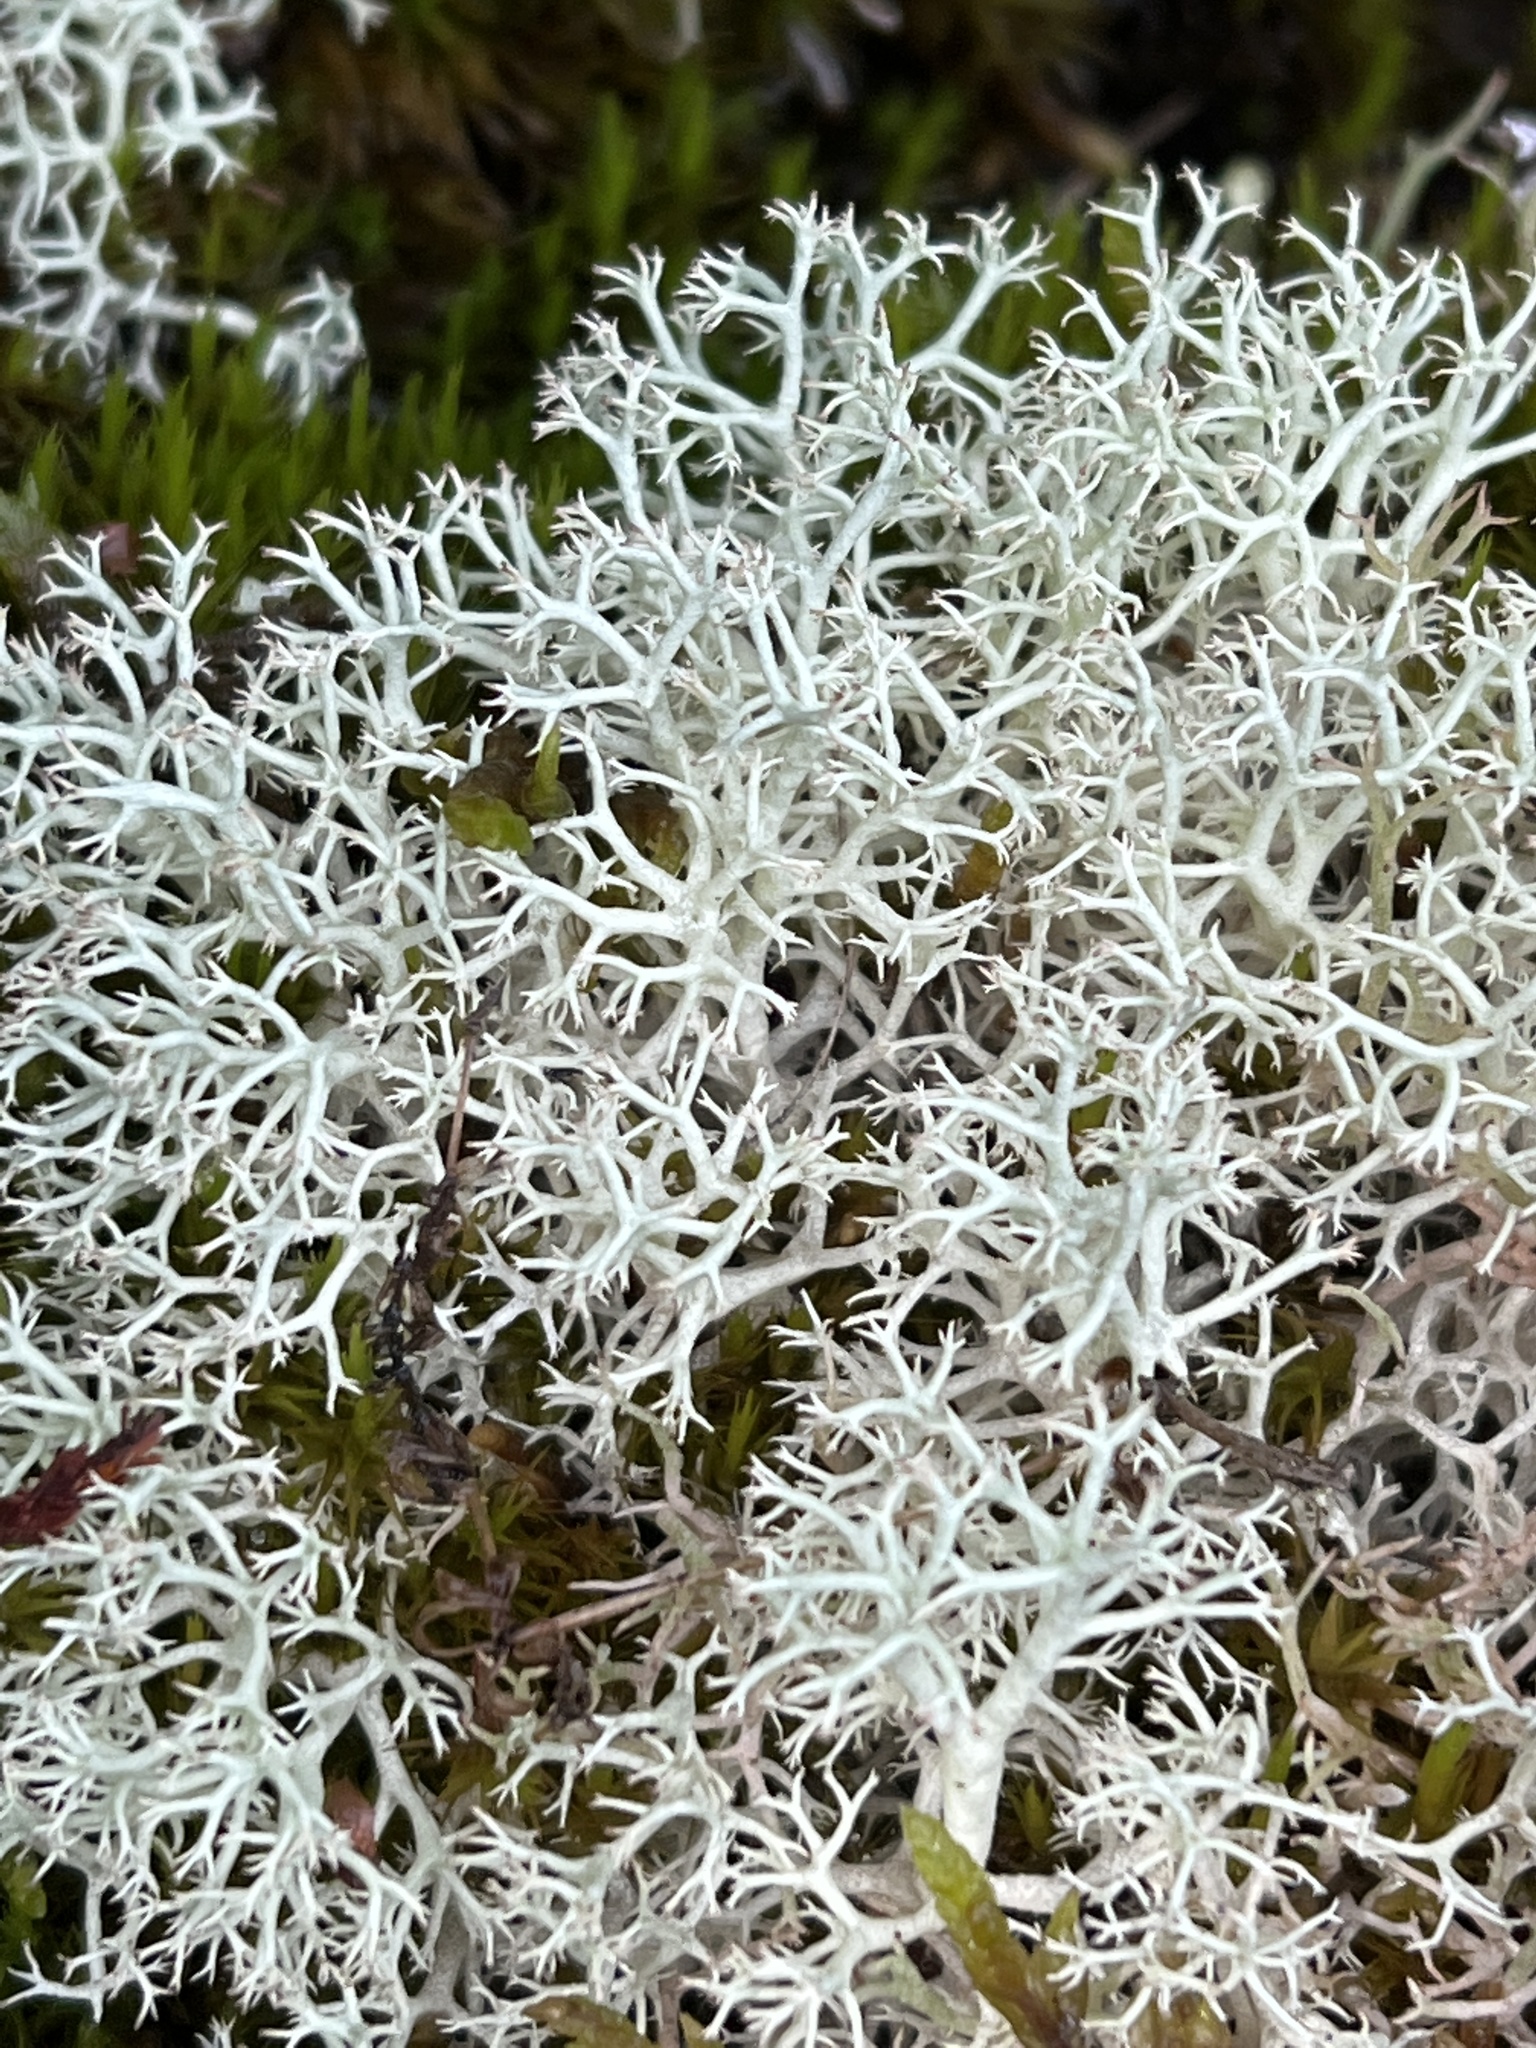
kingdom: Fungi
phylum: Ascomycota
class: Lecanoromycetes
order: Lecanorales
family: Cladoniaceae
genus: Cladonia
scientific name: Cladonia portentosa
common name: Reindeer lichen
